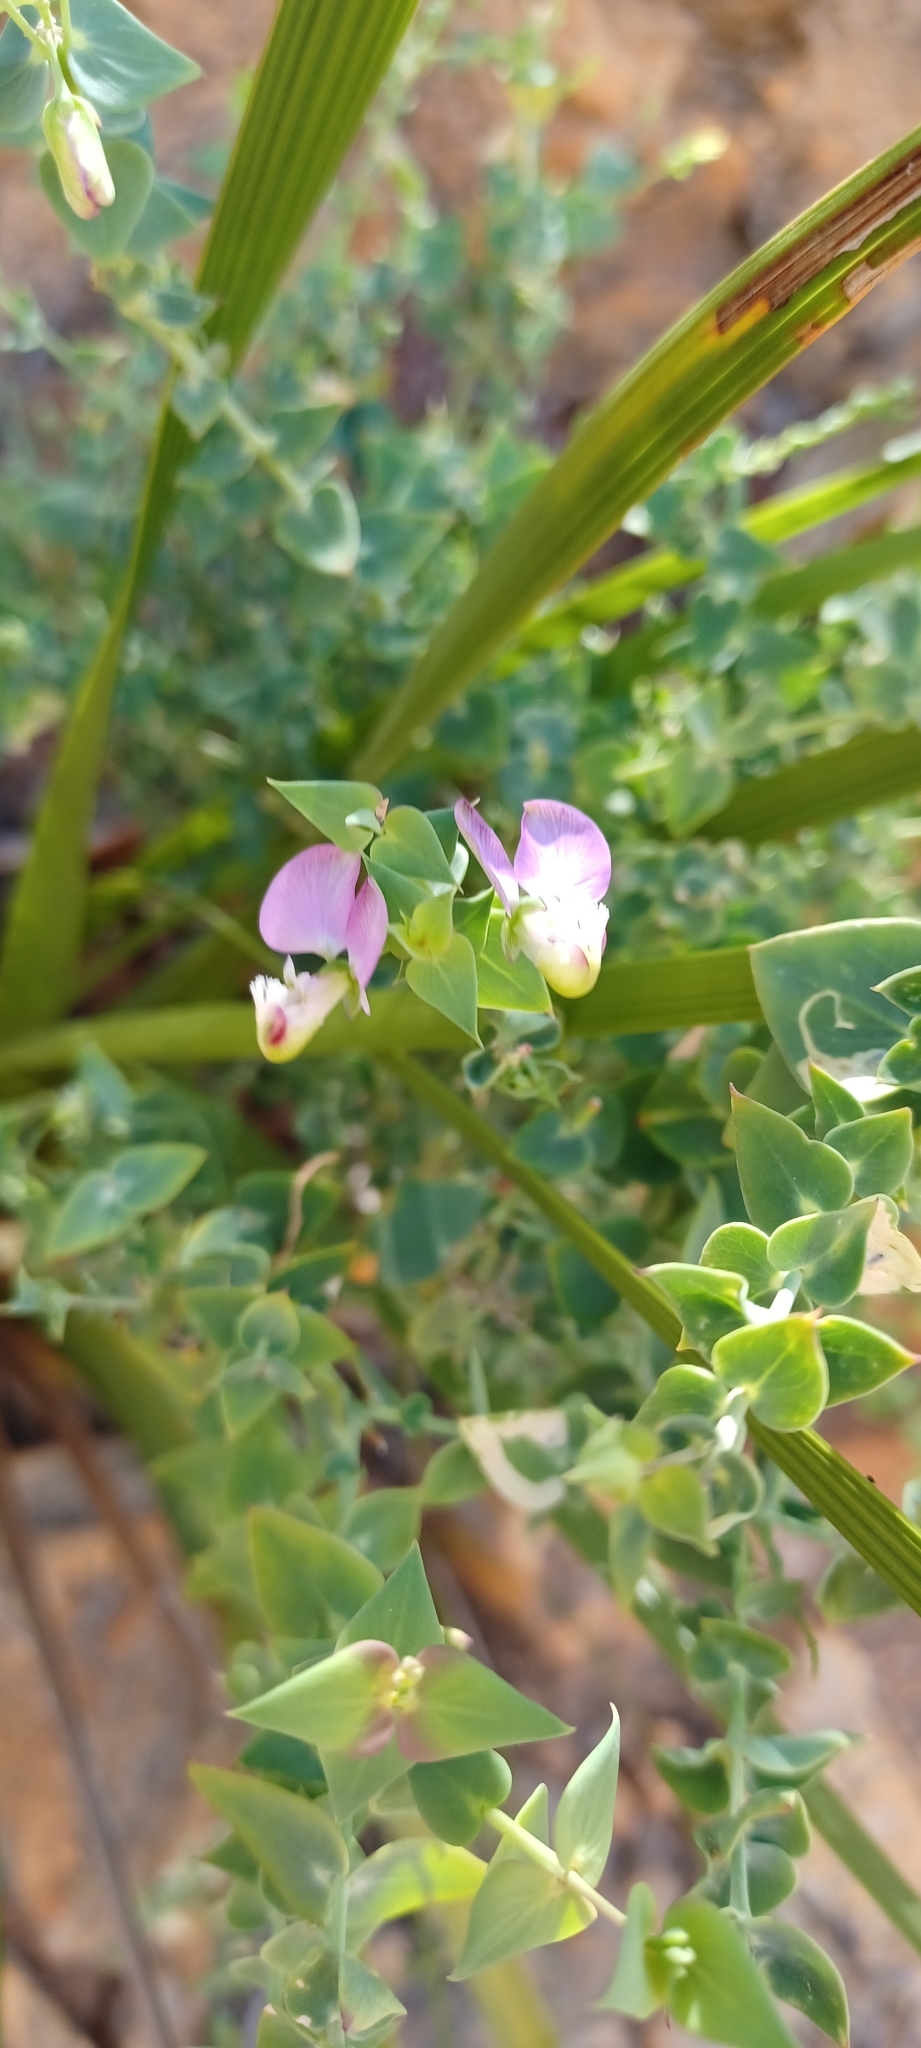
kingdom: Plantae
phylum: Tracheophyta
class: Magnoliopsida
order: Fabales
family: Polygalaceae
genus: Polygala
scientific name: Polygala fruticosa
